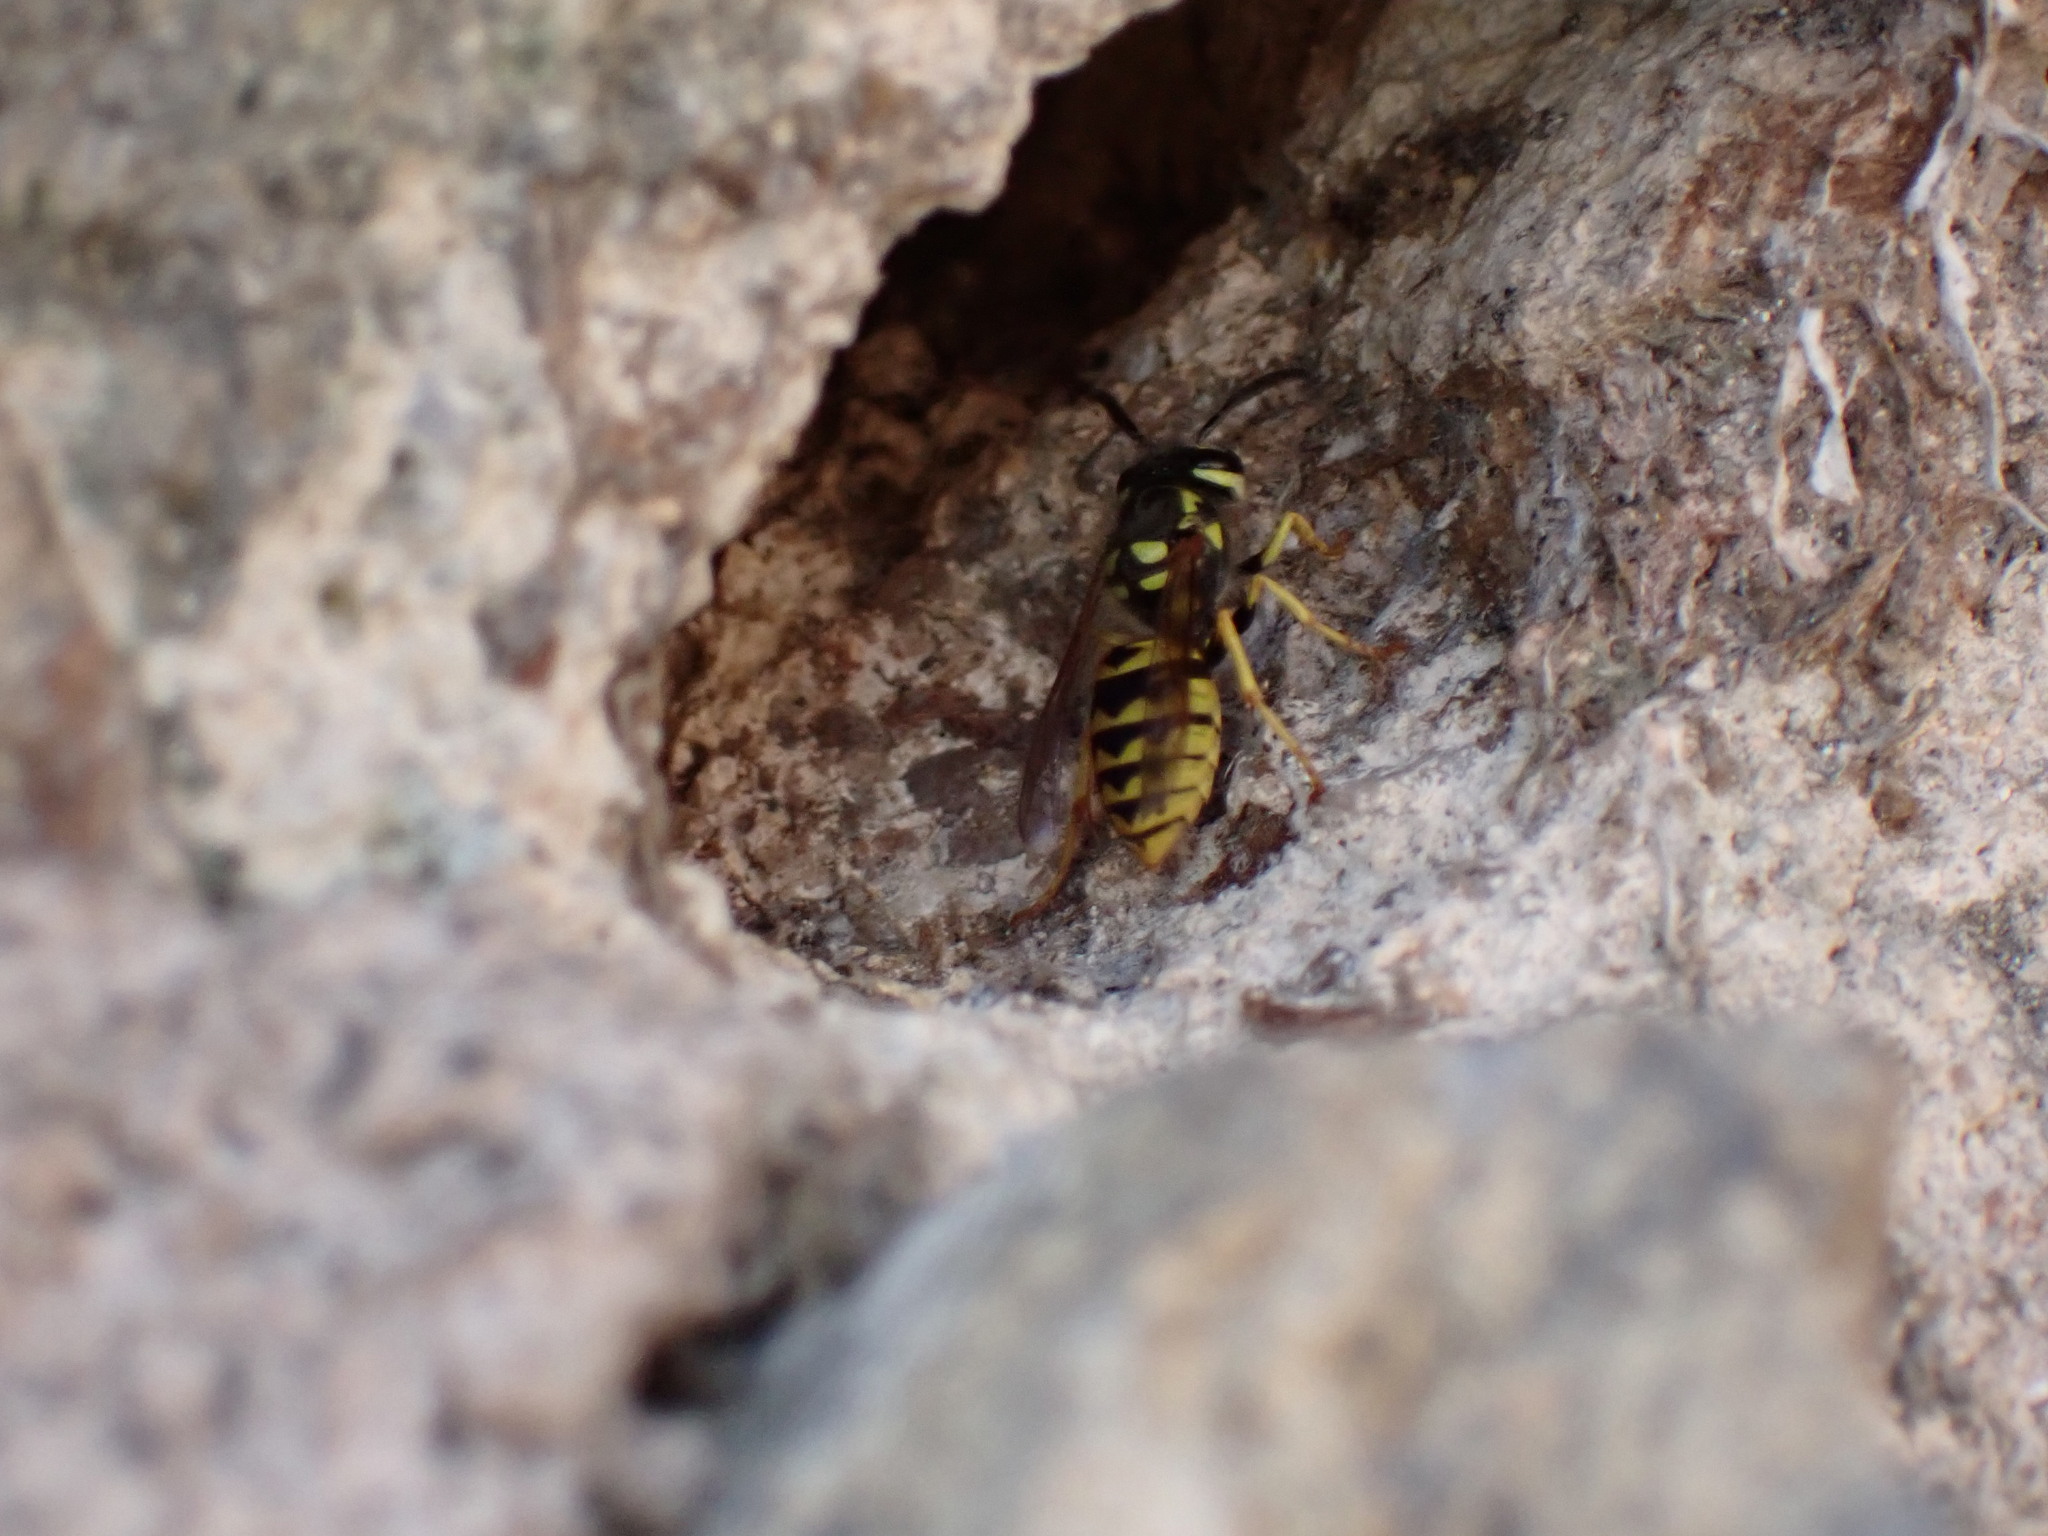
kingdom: Animalia
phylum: Arthropoda
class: Insecta
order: Hymenoptera
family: Vespidae
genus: Vespula
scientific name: Vespula germanica
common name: German wasp
